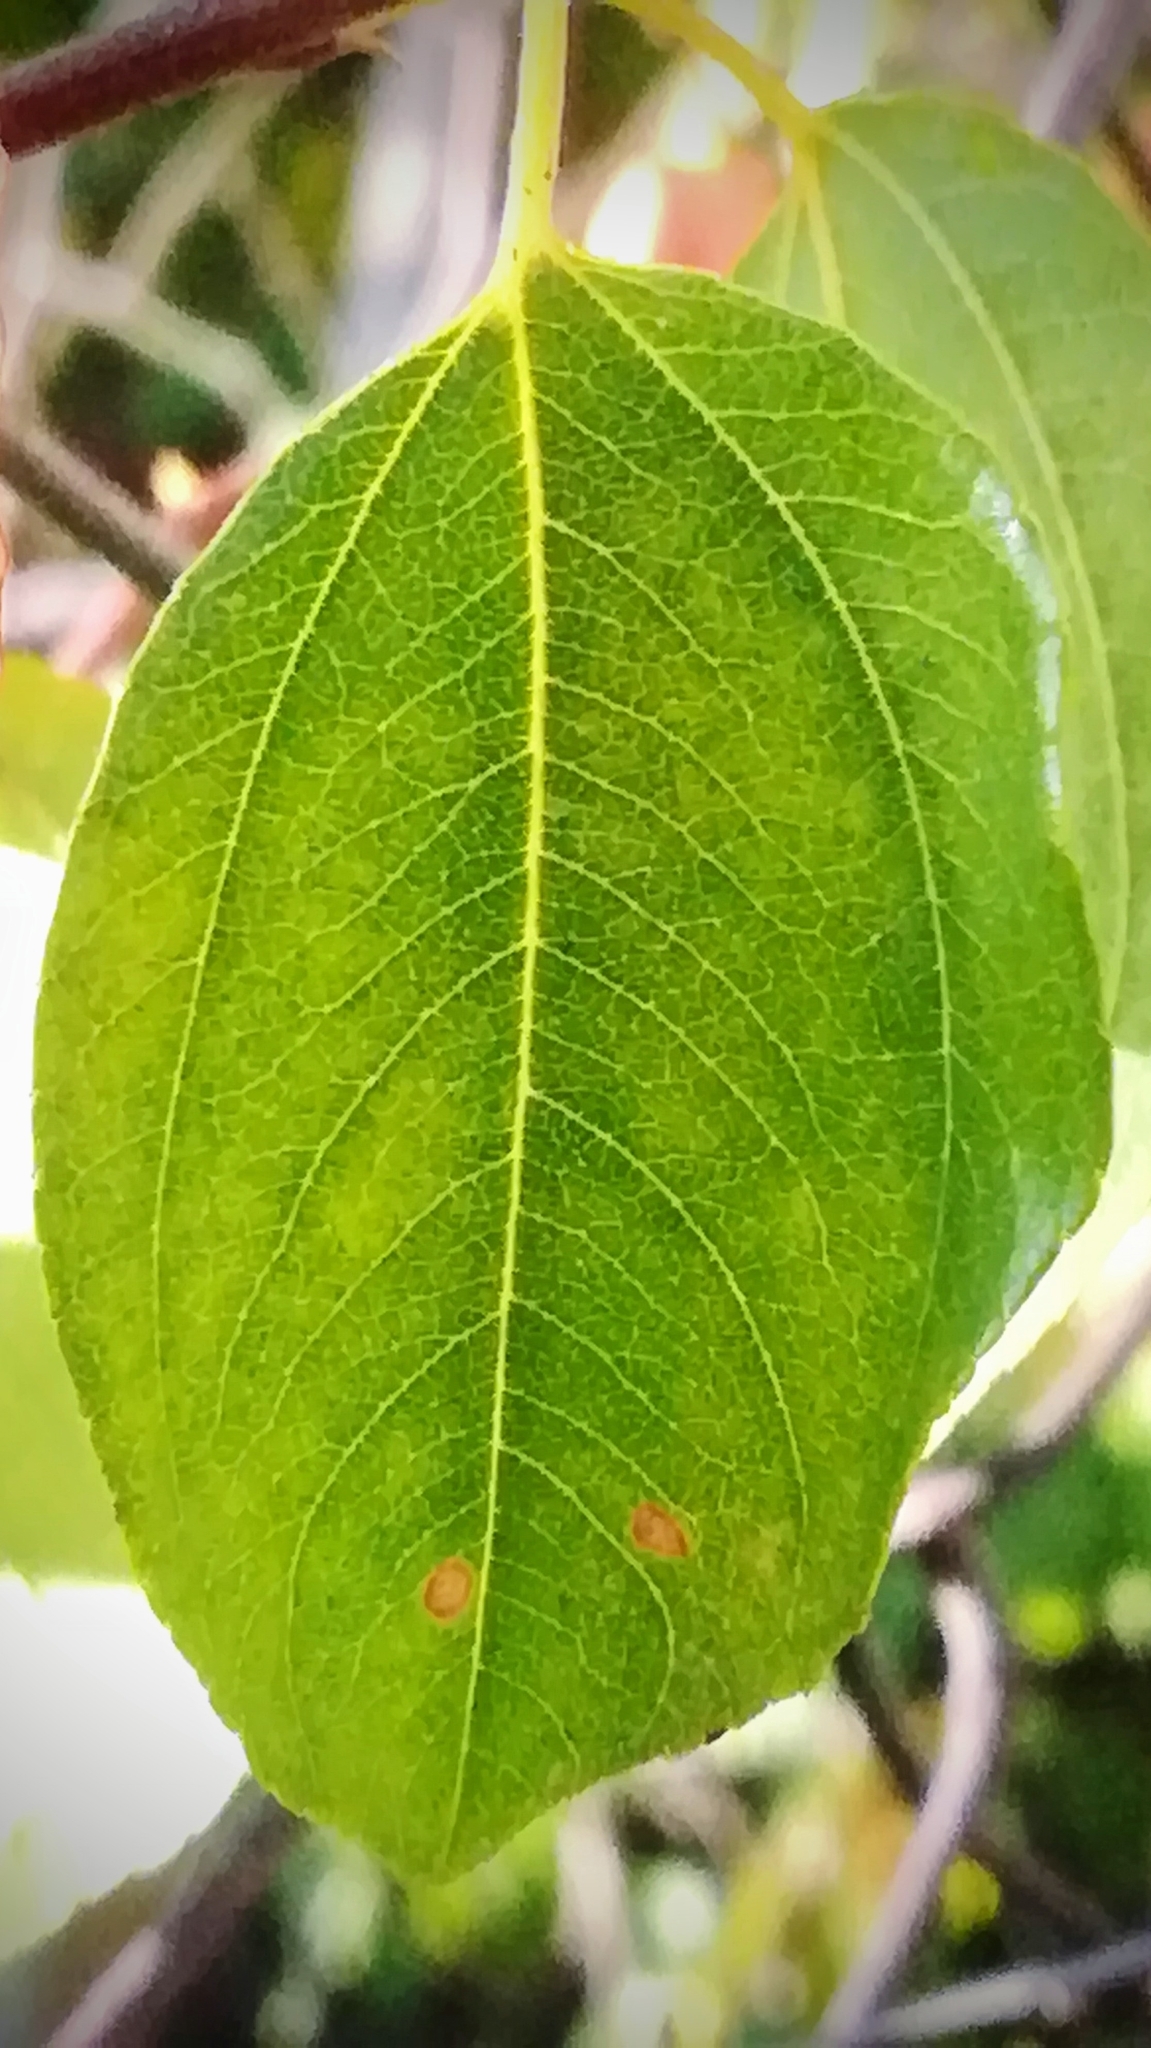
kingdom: Plantae
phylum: Tracheophyta
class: Magnoliopsida
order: Rosales
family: Rhamnaceae
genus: Paliurus
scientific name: Paliurus spina-christi
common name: Jeruselem thorn
